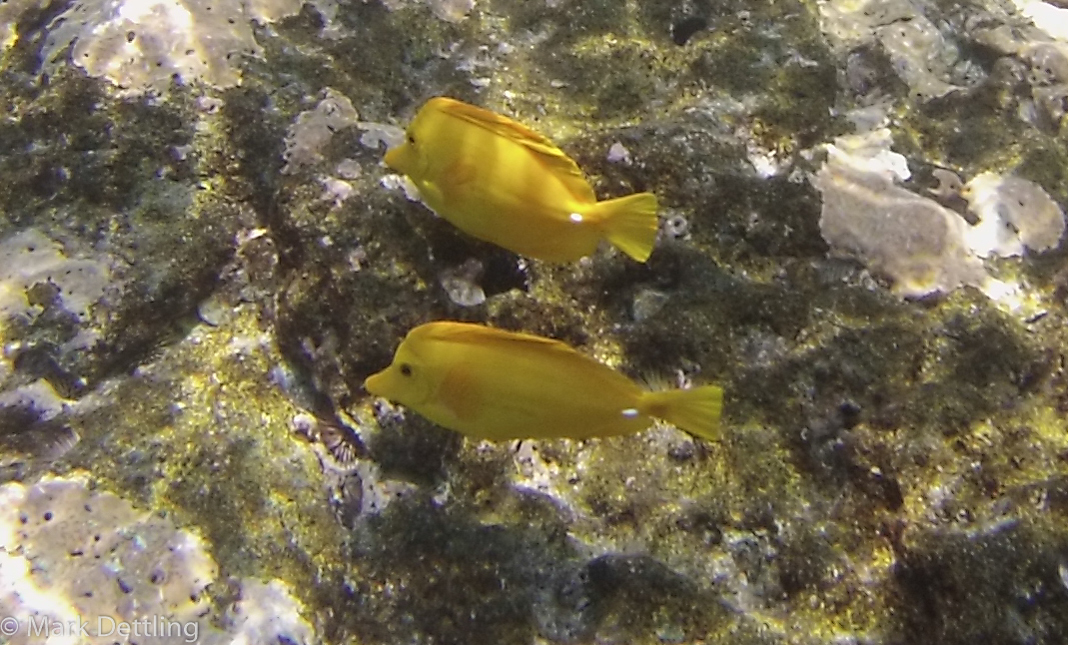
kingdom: Animalia
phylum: Chordata
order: Perciformes
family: Acanthuridae
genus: Zebrasoma
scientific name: Zebrasoma flavescens
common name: Yellow tang
